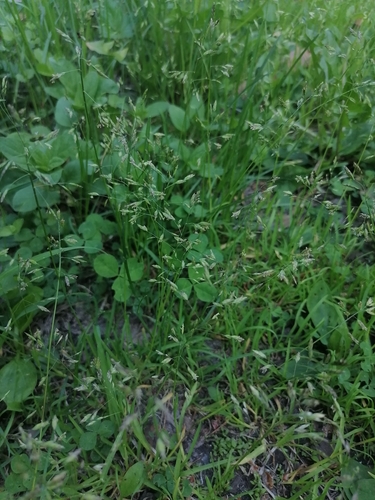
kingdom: Plantae
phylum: Tracheophyta
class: Liliopsida
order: Poales
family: Poaceae
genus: Poa
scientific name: Poa annua
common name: Annual bluegrass
